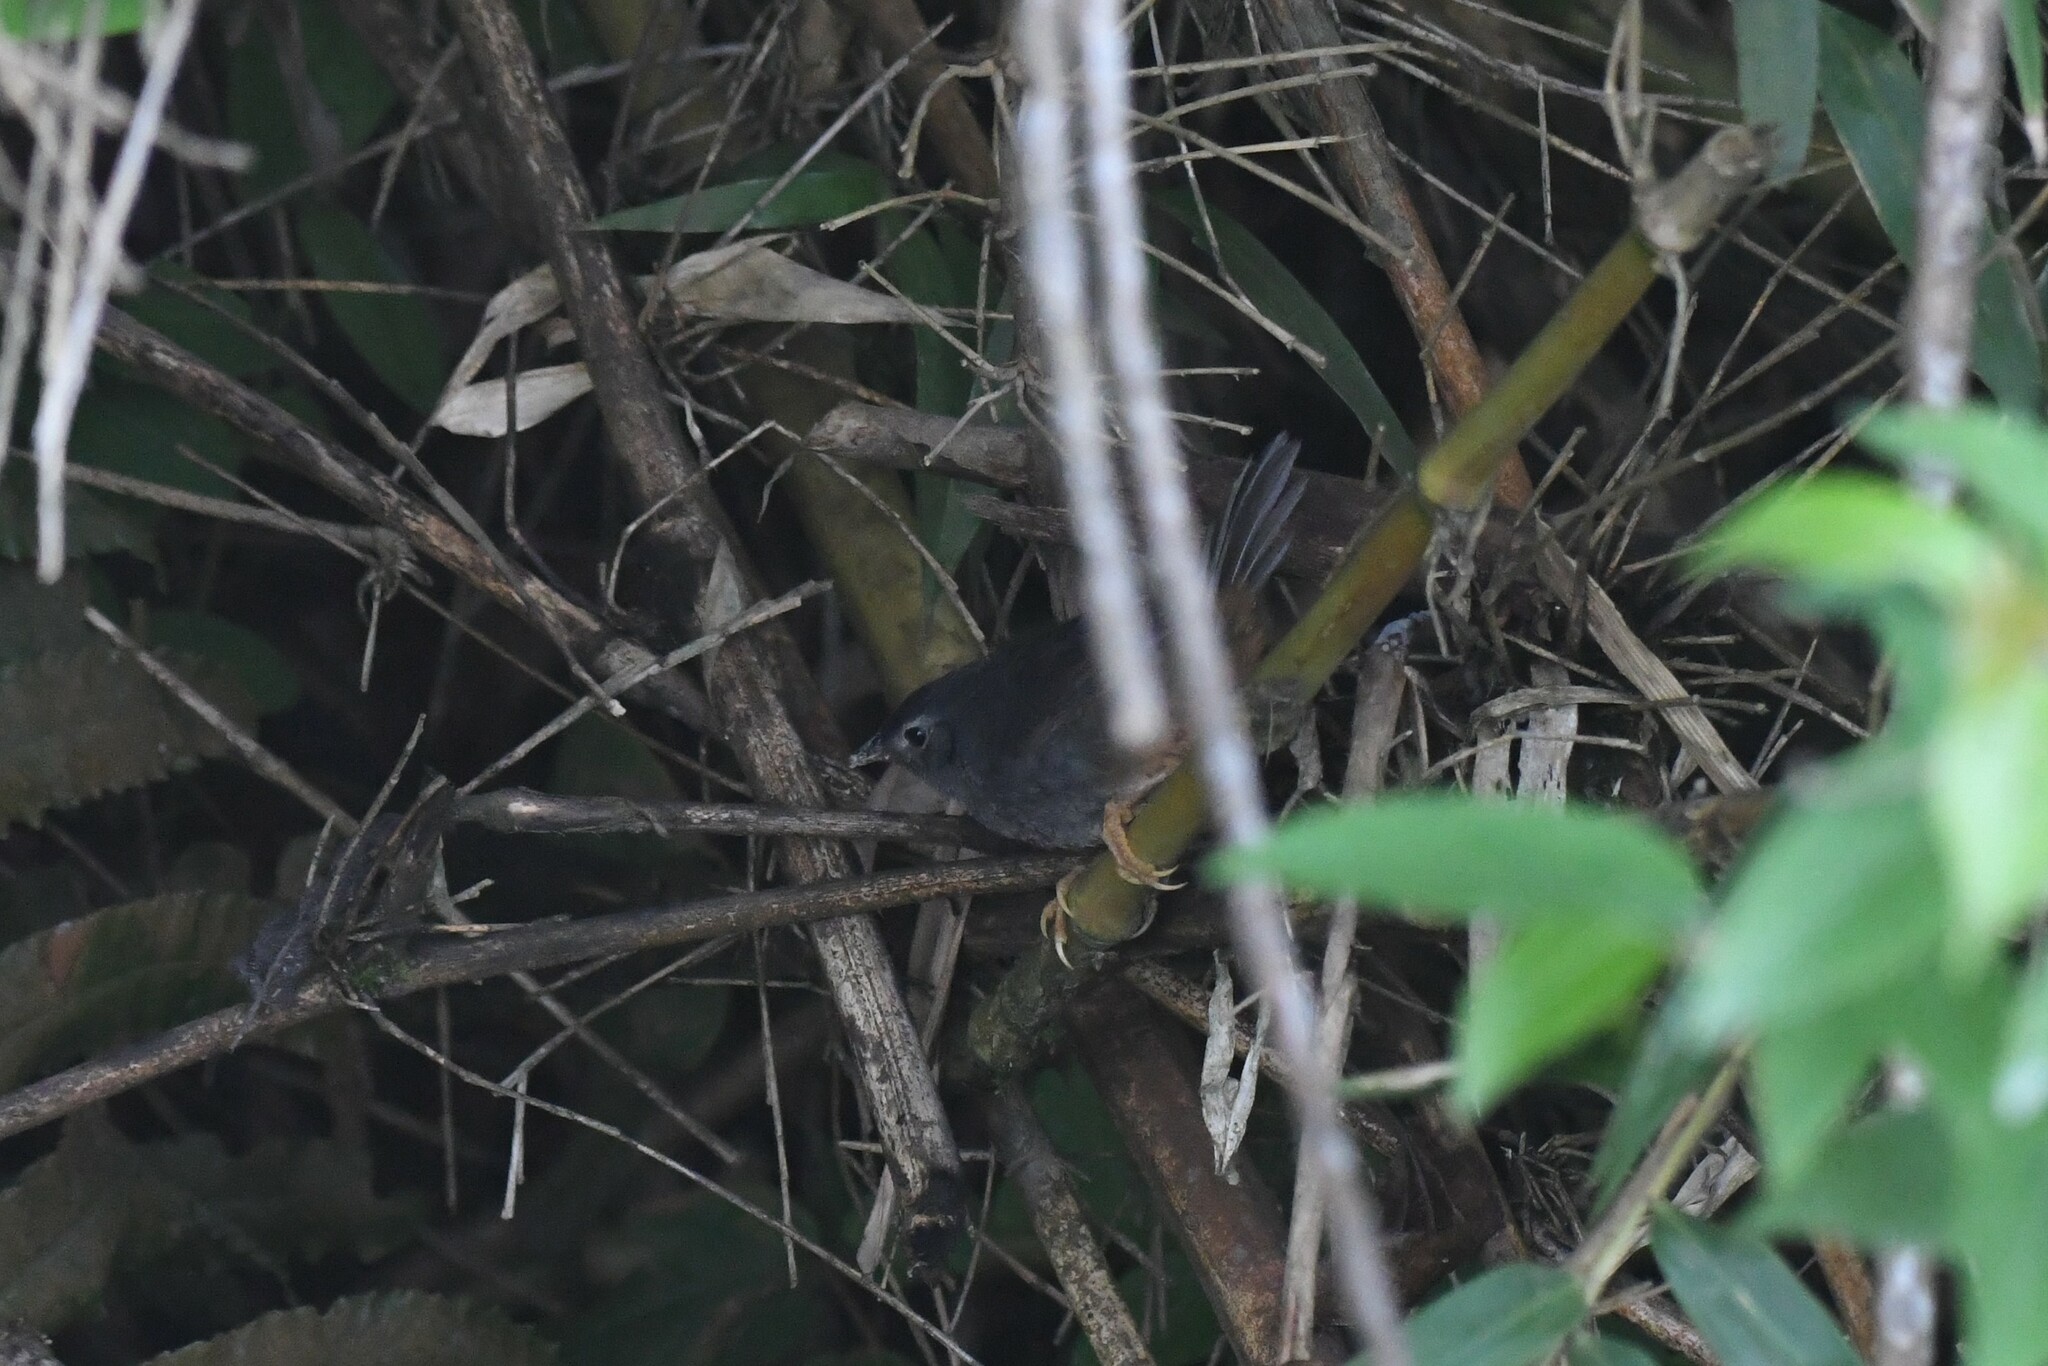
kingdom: Animalia
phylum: Chordata
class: Aves
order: Passeriformes
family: Rhinocryptidae
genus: Eugralla
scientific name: Eugralla paradoxa
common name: Ochre-flanked tapaculo
